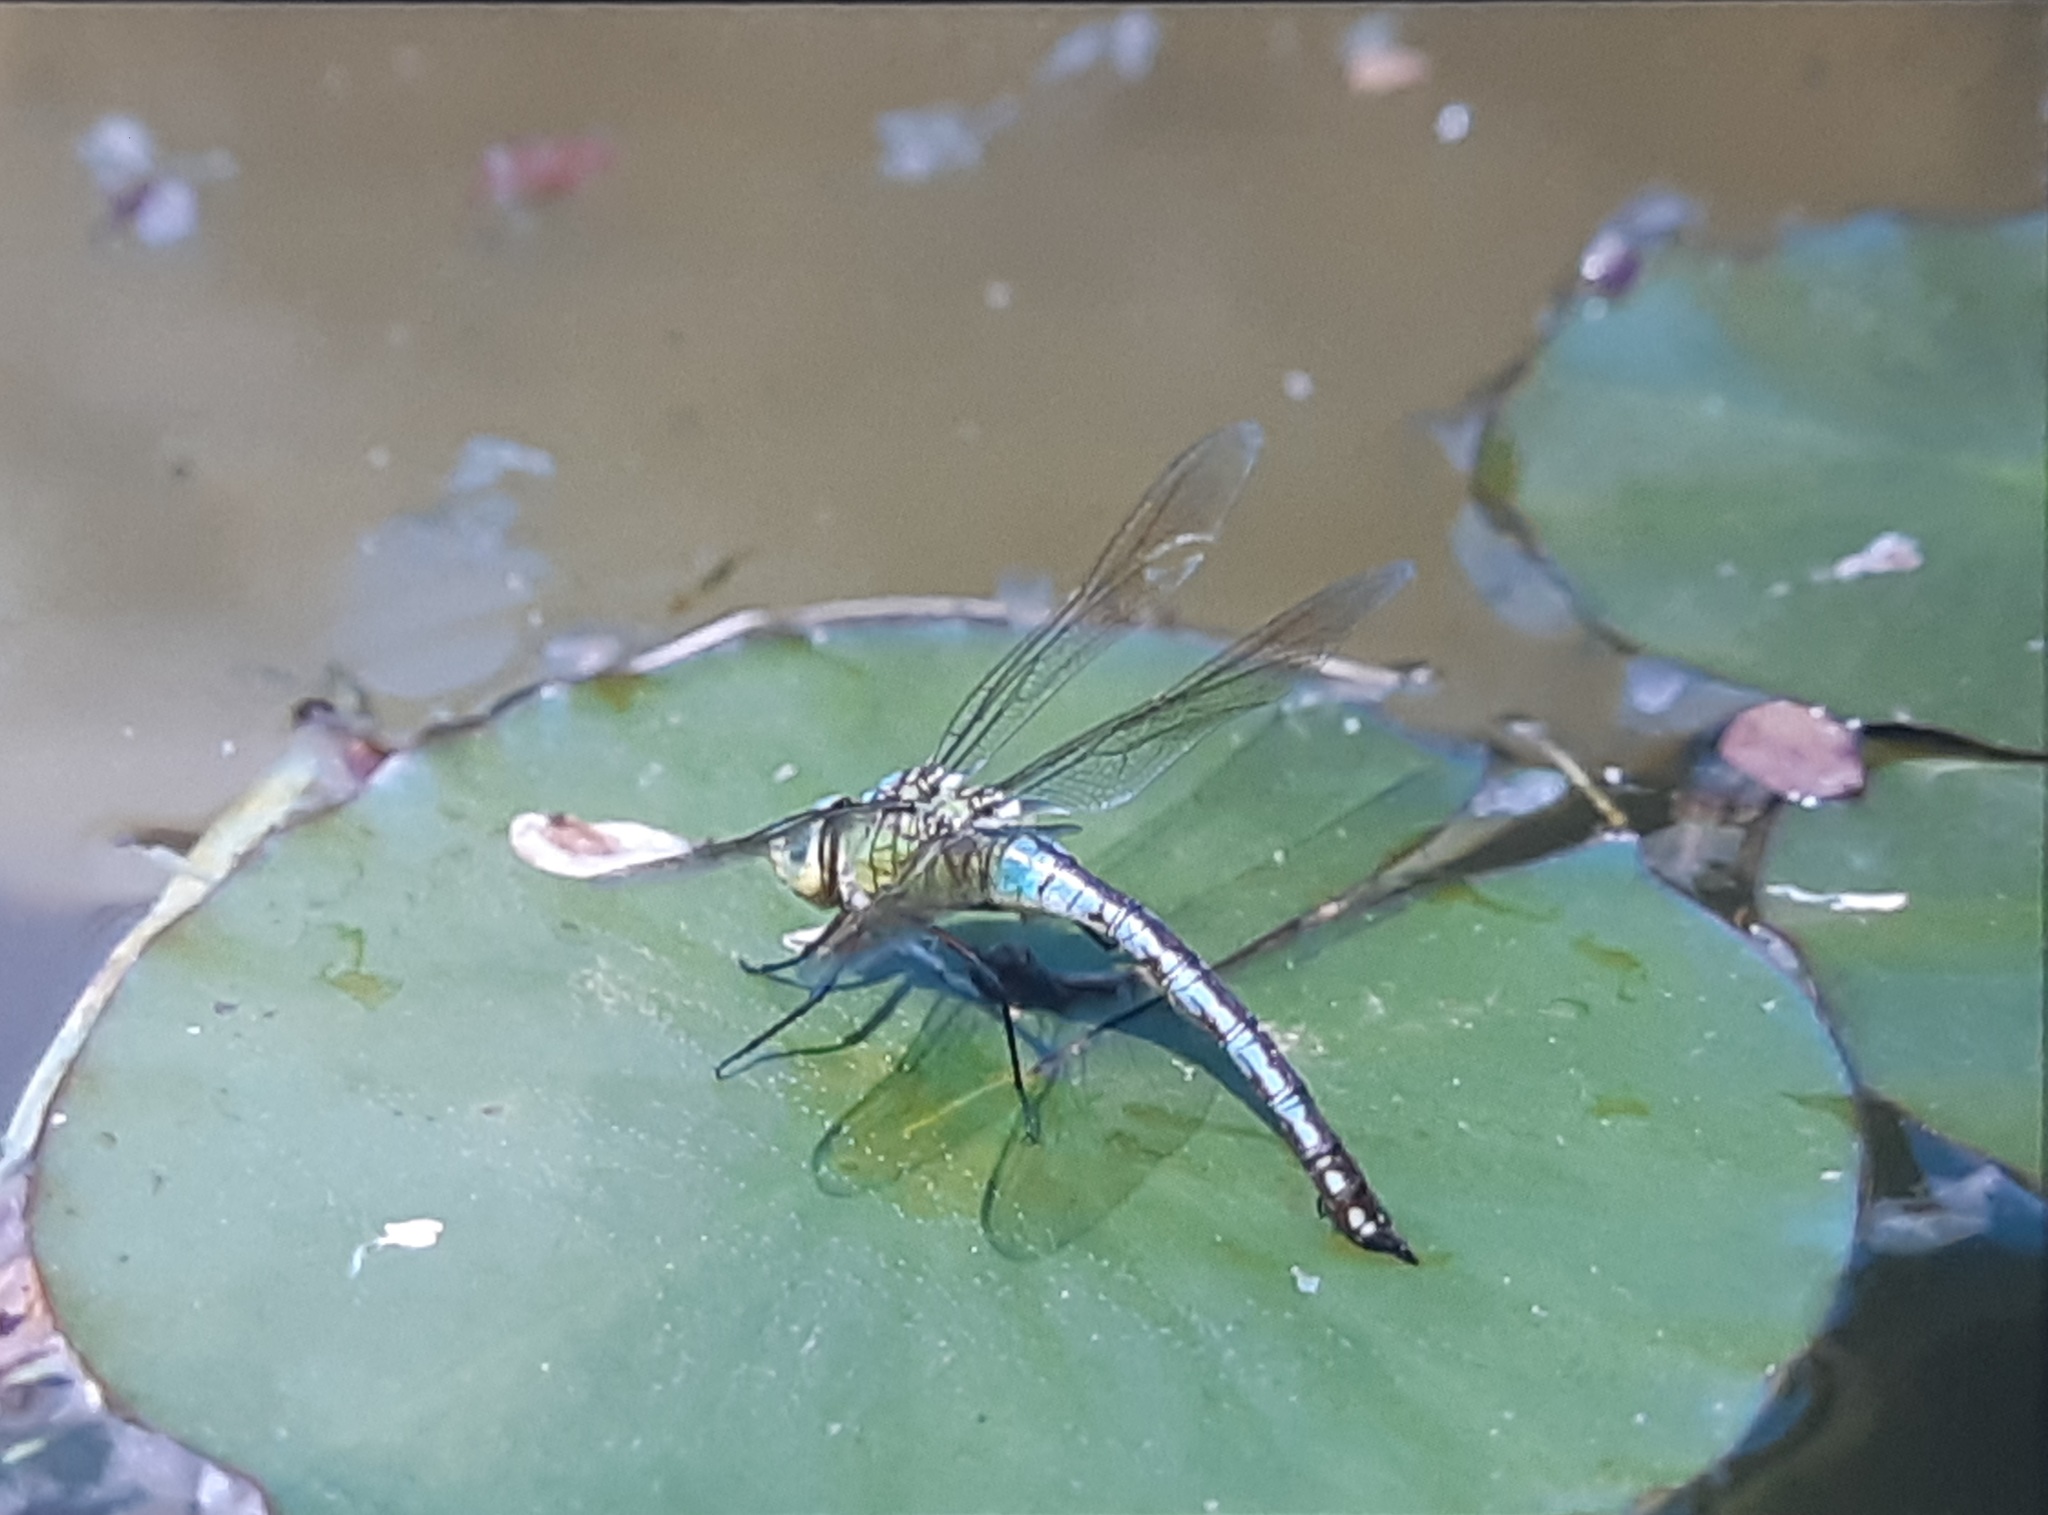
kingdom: Animalia
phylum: Arthropoda
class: Insecta
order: Odonata
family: Aeshnidae
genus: Anax
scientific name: Anax imperator
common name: Emperor dragonfly
